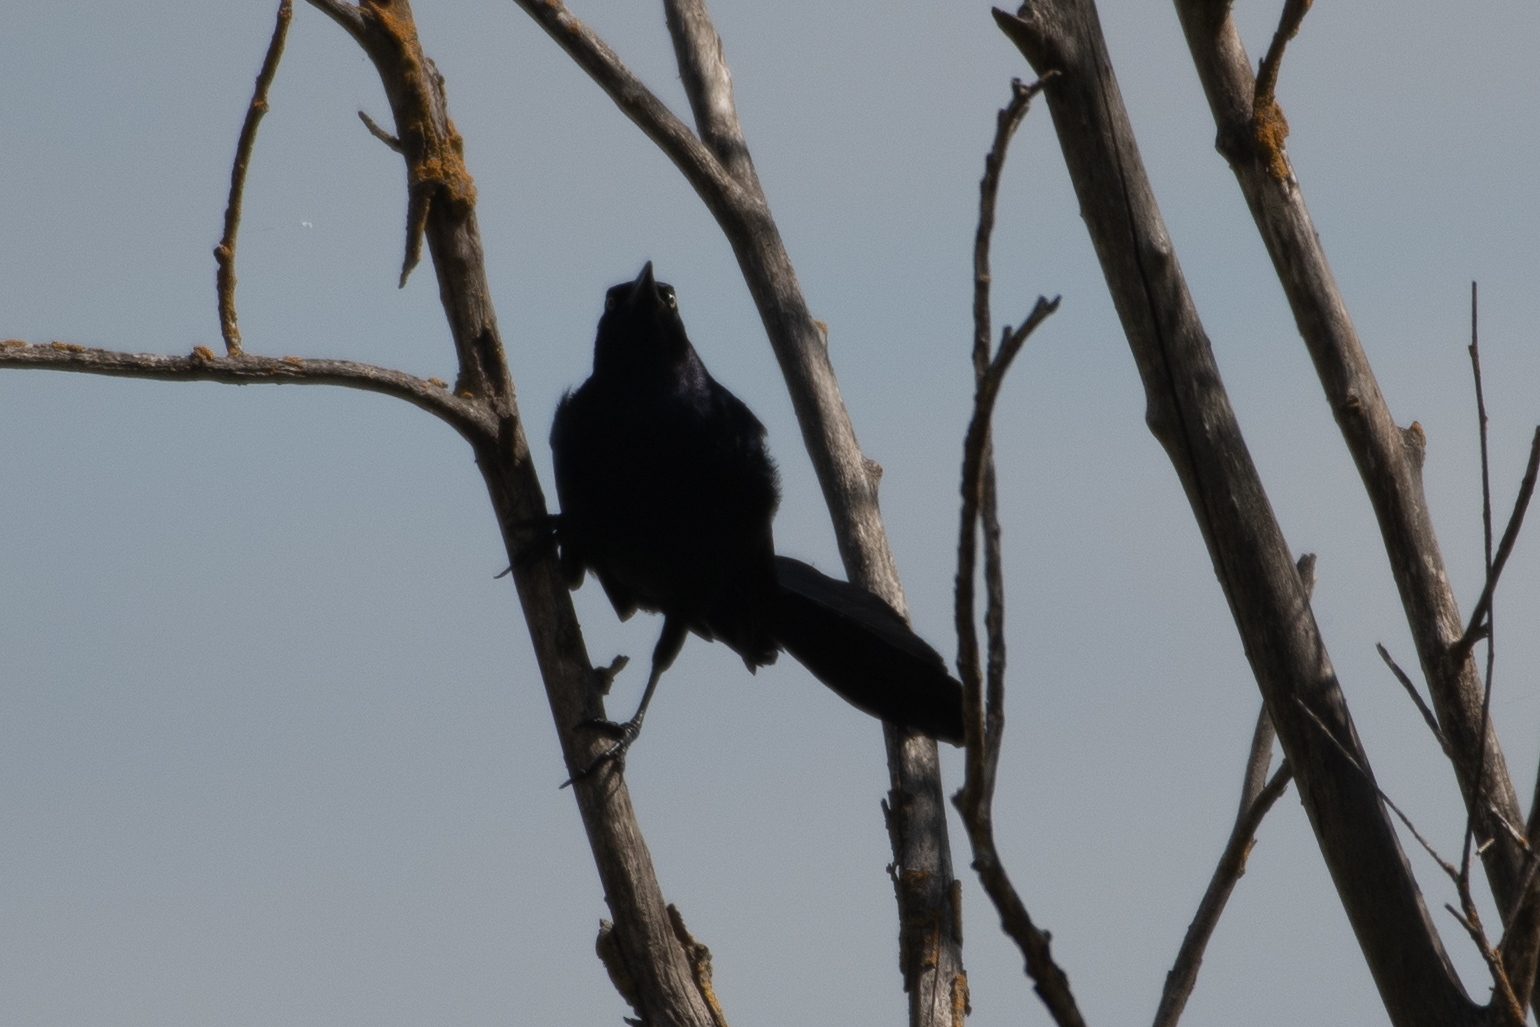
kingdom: Animalia
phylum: Chordata
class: Aves
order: Passeriformes
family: Icteridae
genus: Quiscalus
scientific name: Quiscalus mexicanus
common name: Great-tailed grackle
